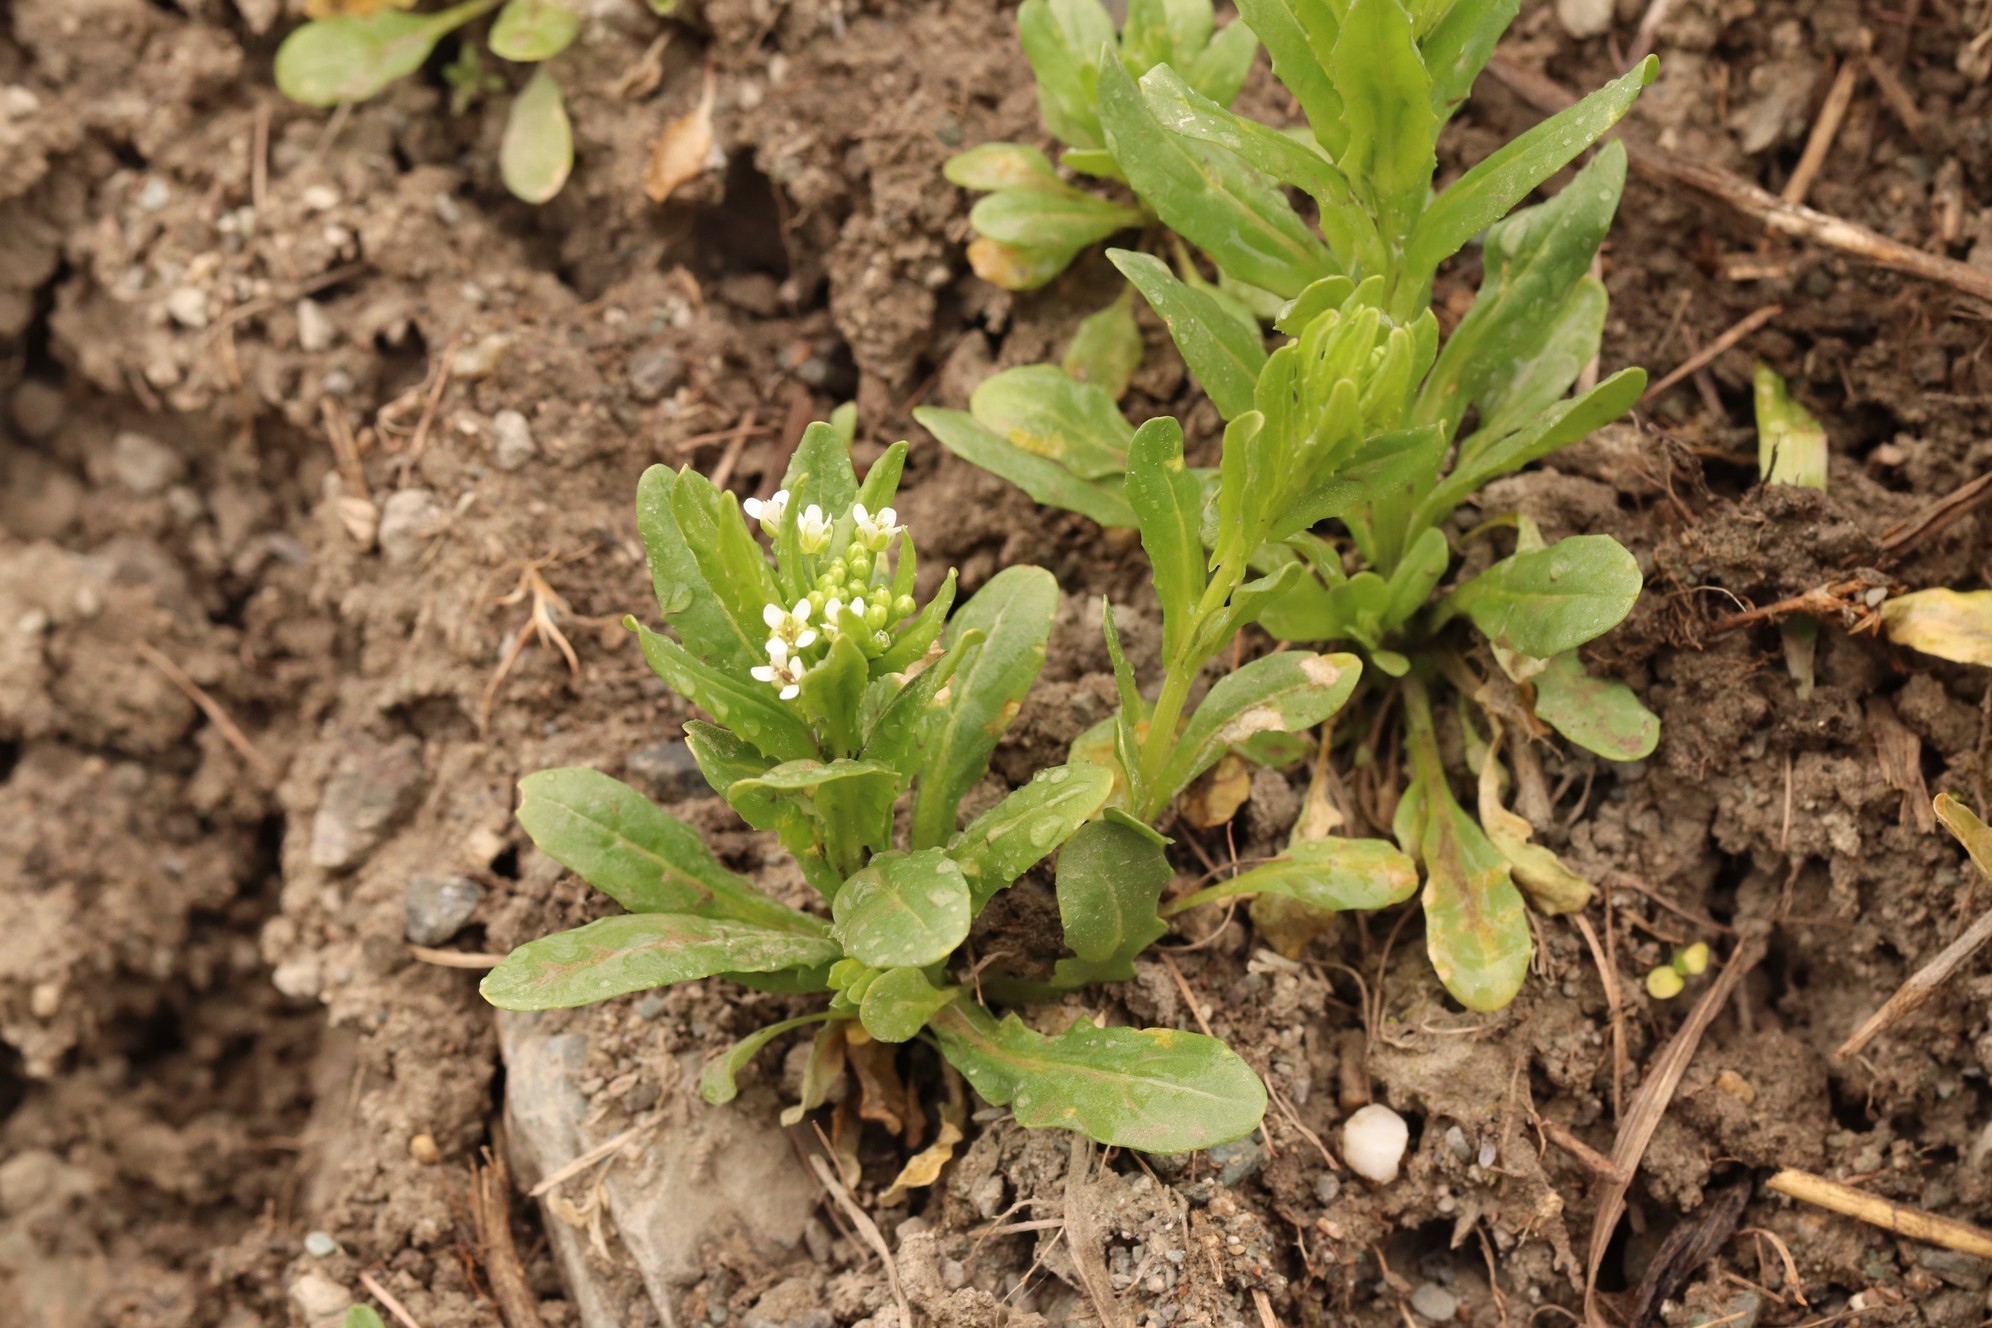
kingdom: Plantae
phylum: Tracheophyta
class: Magnoliopsida
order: Brassicales
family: Brassicaceae
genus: Thlaspi
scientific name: Thlaspi arvense
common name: Field pennycress
